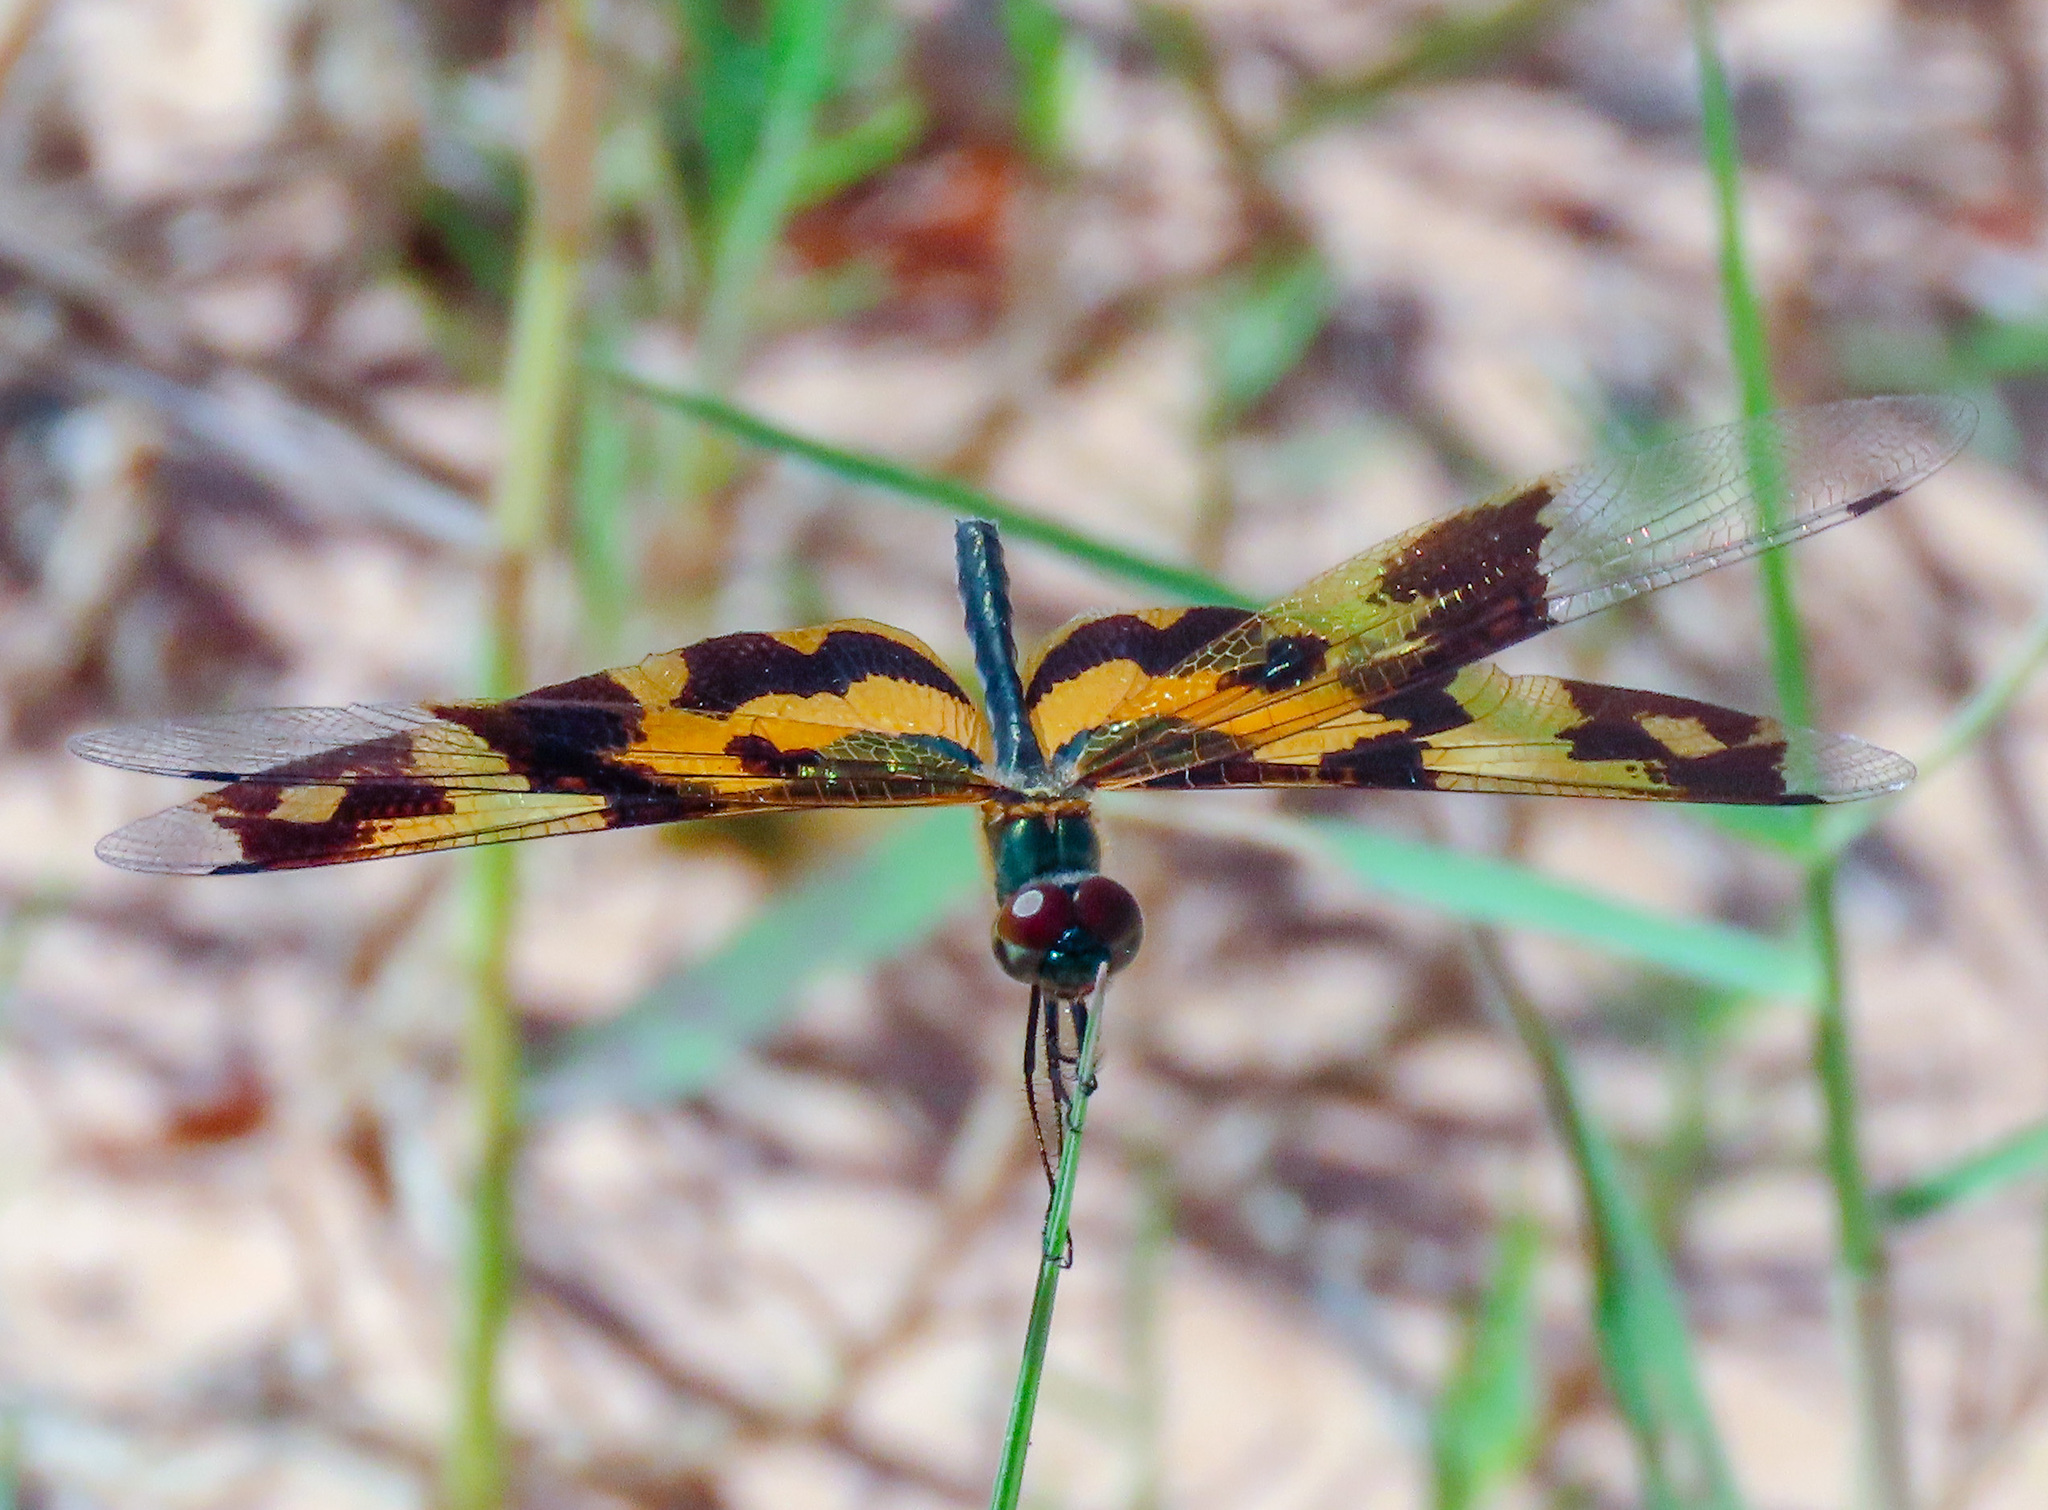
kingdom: Animalia
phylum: Arthropoda
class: Insecta
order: Odonata
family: Libellulidae
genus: Rhyothemis
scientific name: Rhyothemis variegata
